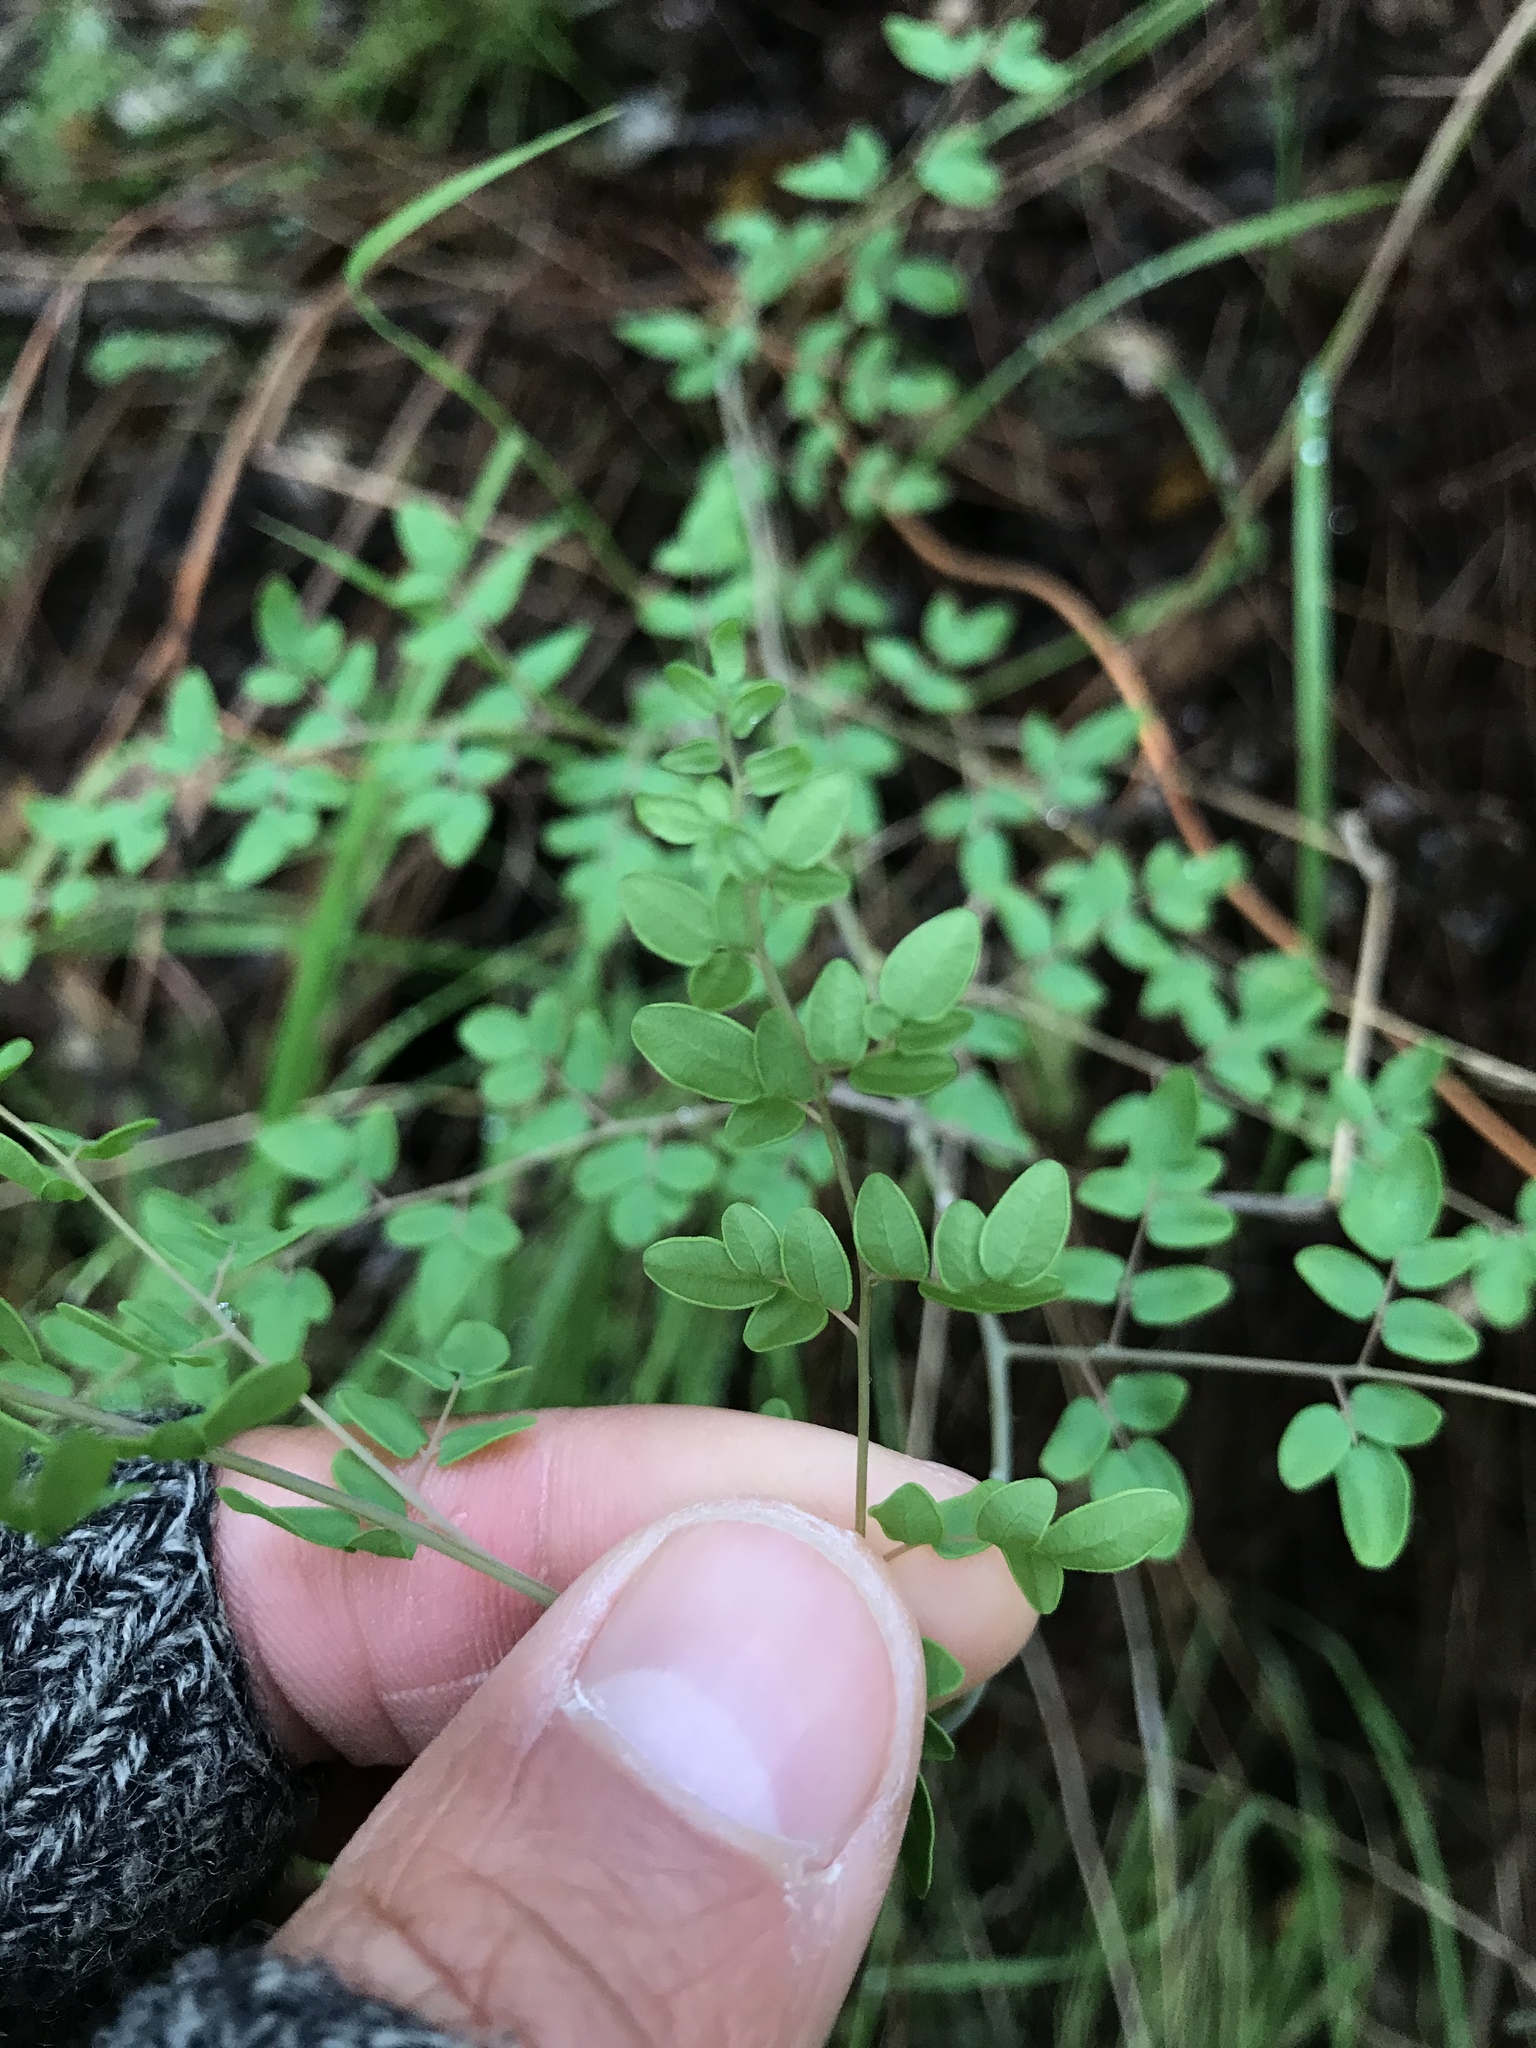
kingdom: Plantae
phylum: Tracheophyta
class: Polypodiopsida
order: Polypodiales
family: Pteridaceae
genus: Pellaea
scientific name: Pellaea andromedifolia
